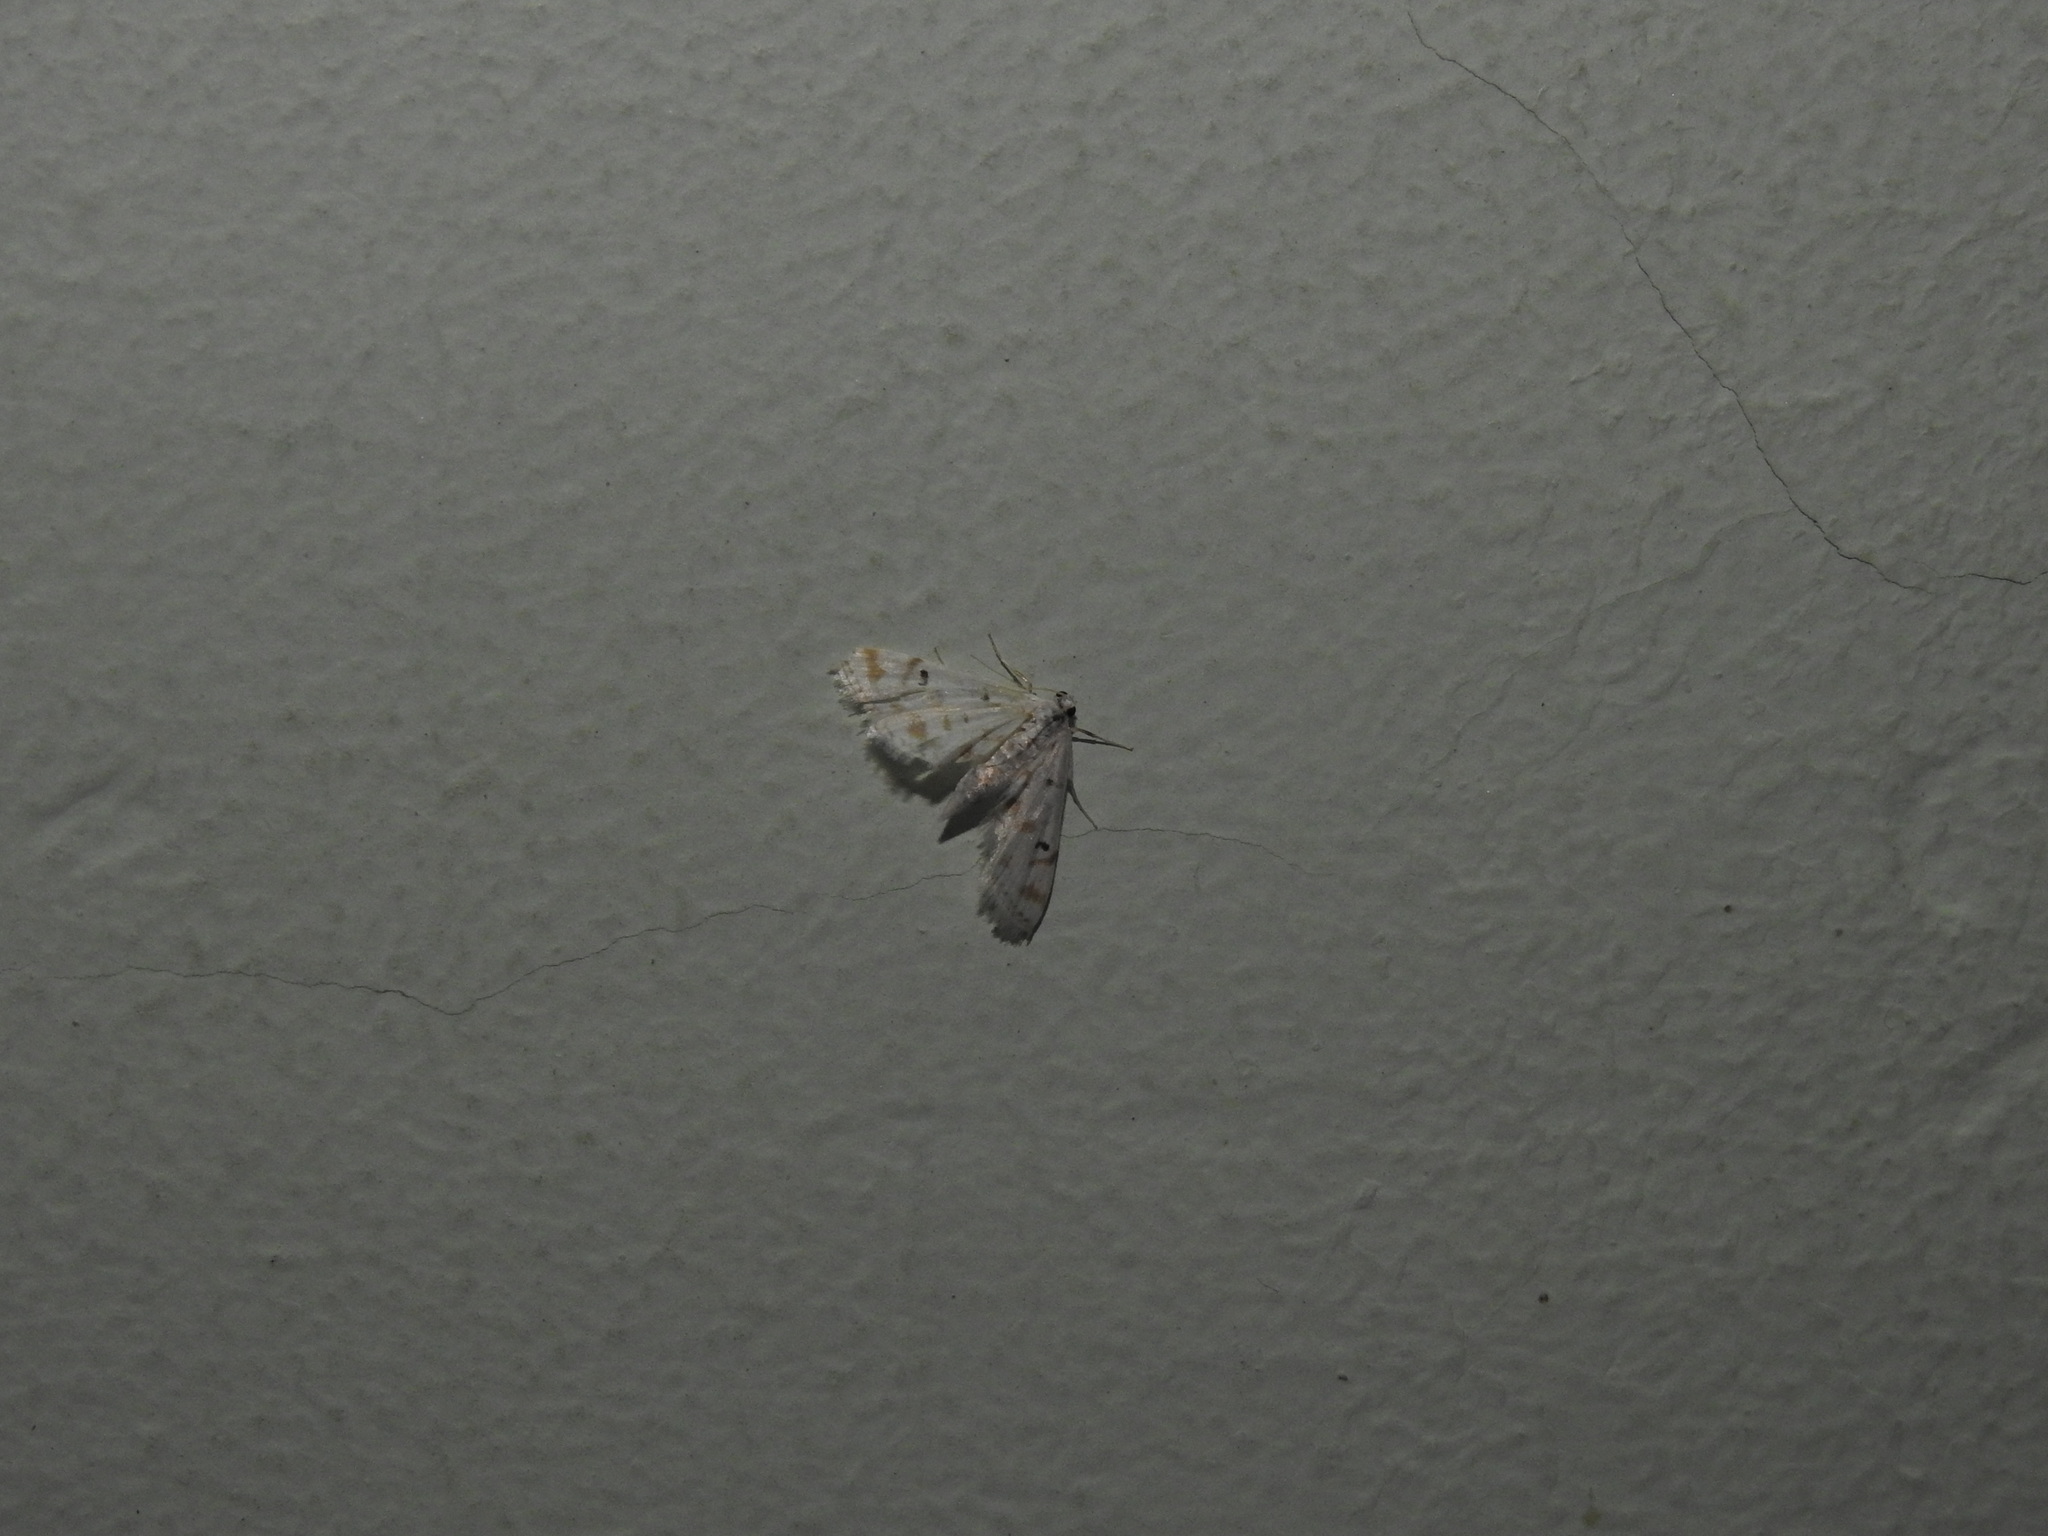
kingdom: Animalia
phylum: Arthropoda
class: Insecta
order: Lepidoptera
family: Crambidae
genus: Parapoynx
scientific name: Parapoynx stagnalis
